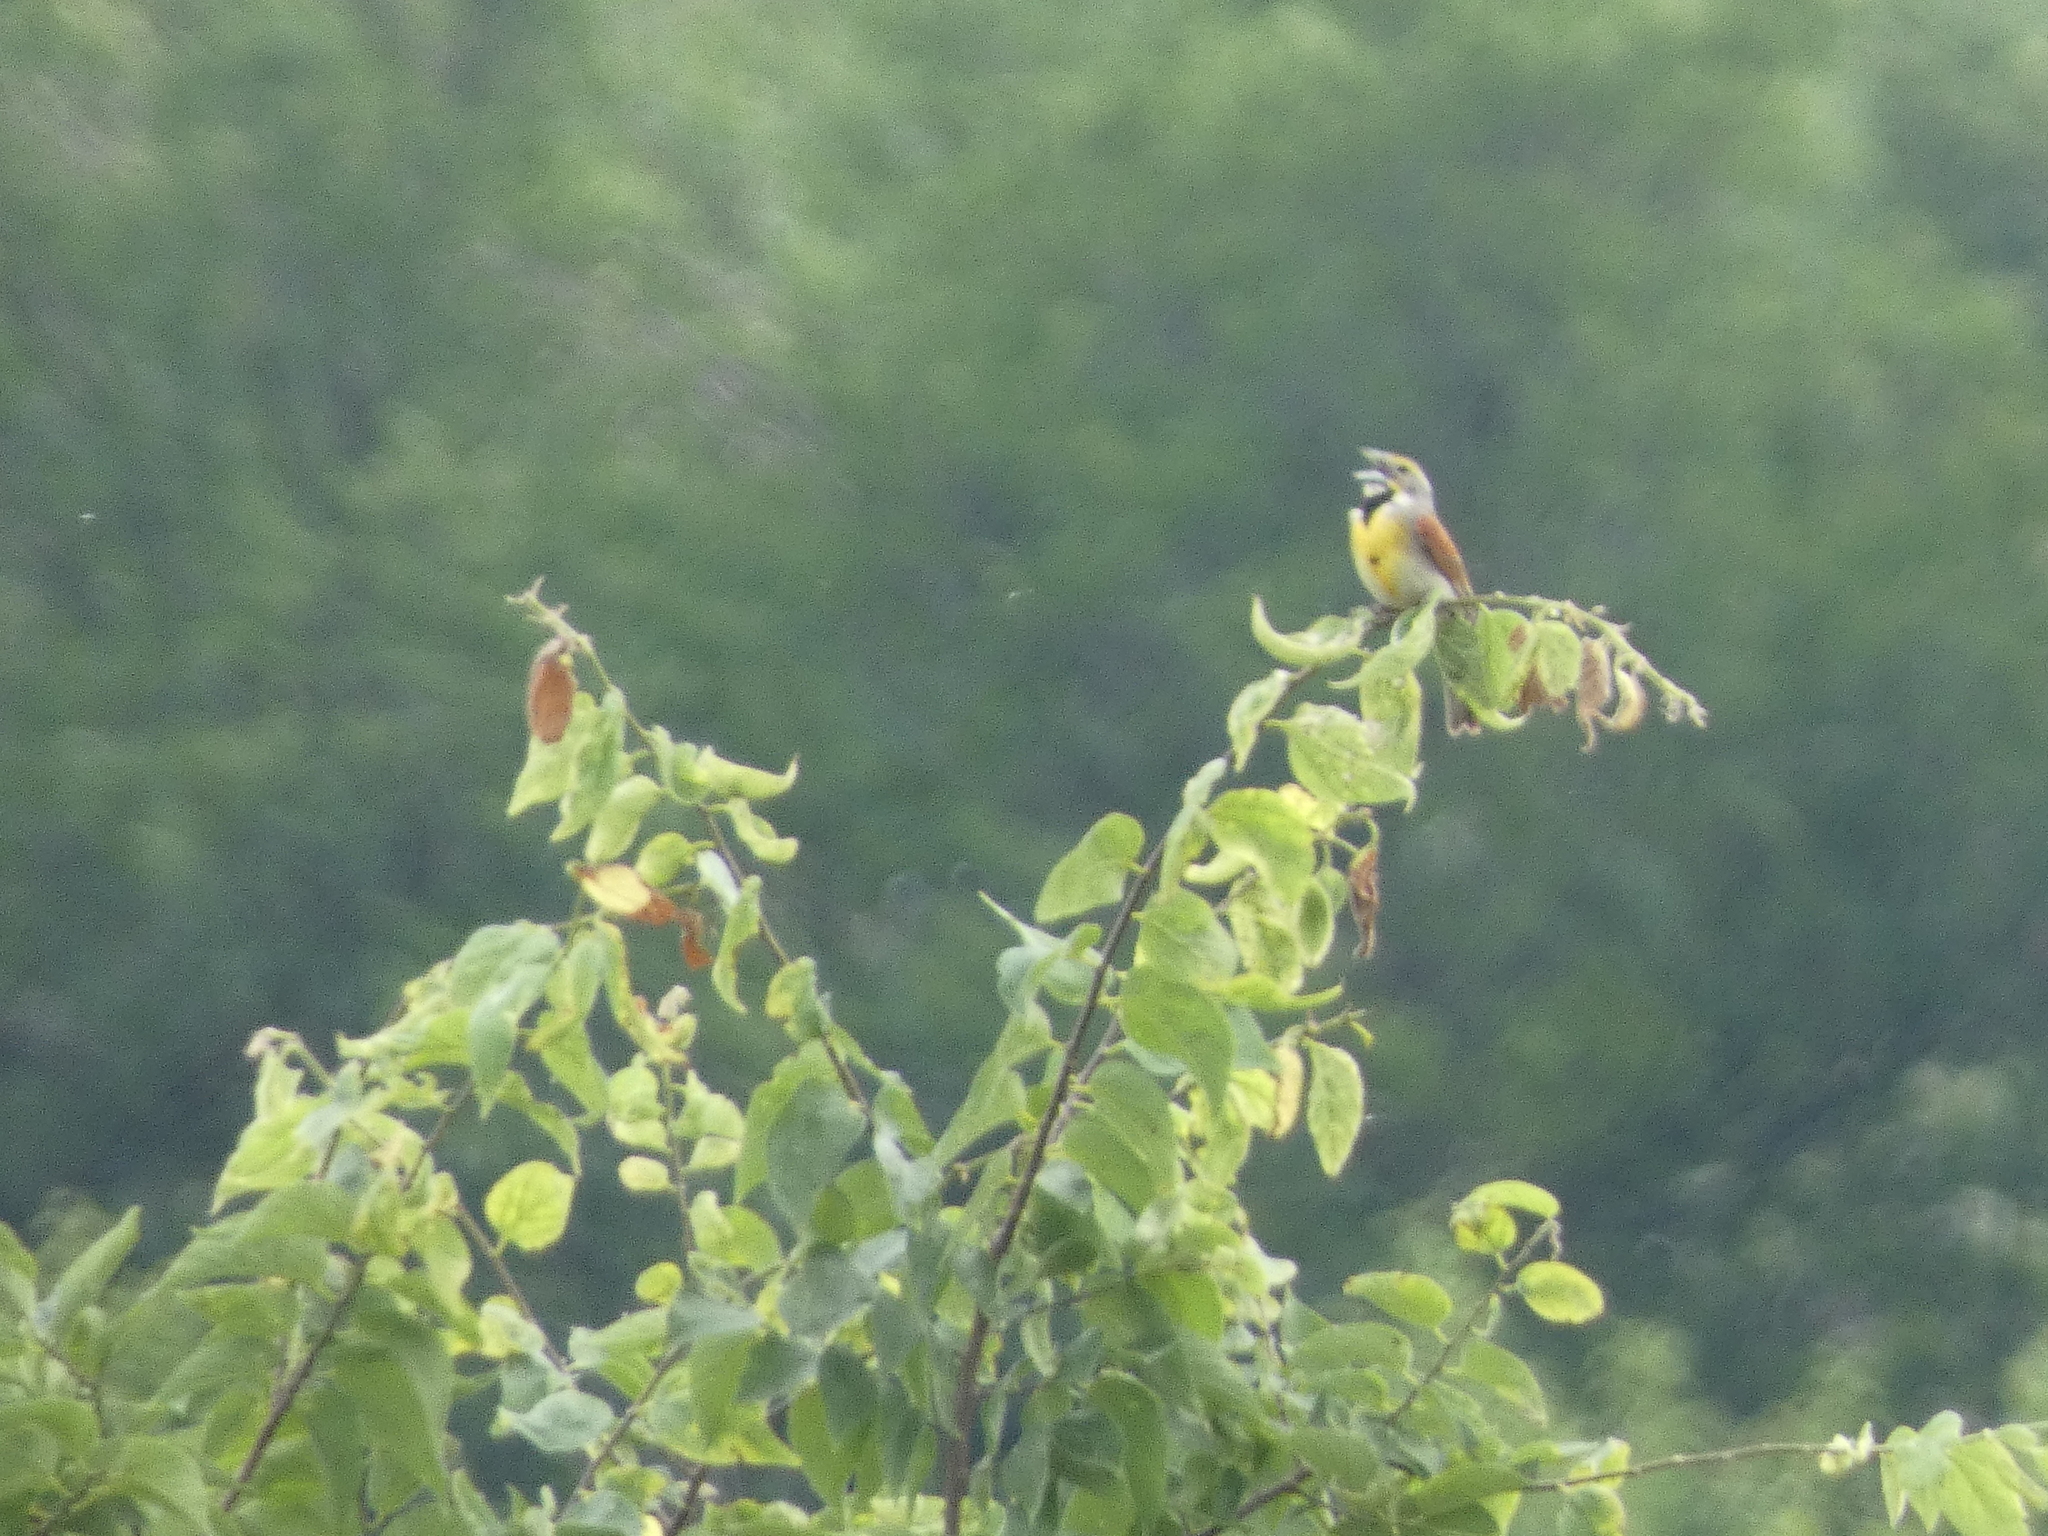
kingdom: Animalia
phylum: Chordata
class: Aves
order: Passeriformes
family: Cardinalidae
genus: Spiza
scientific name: Spiza americana
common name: Dickcissel
